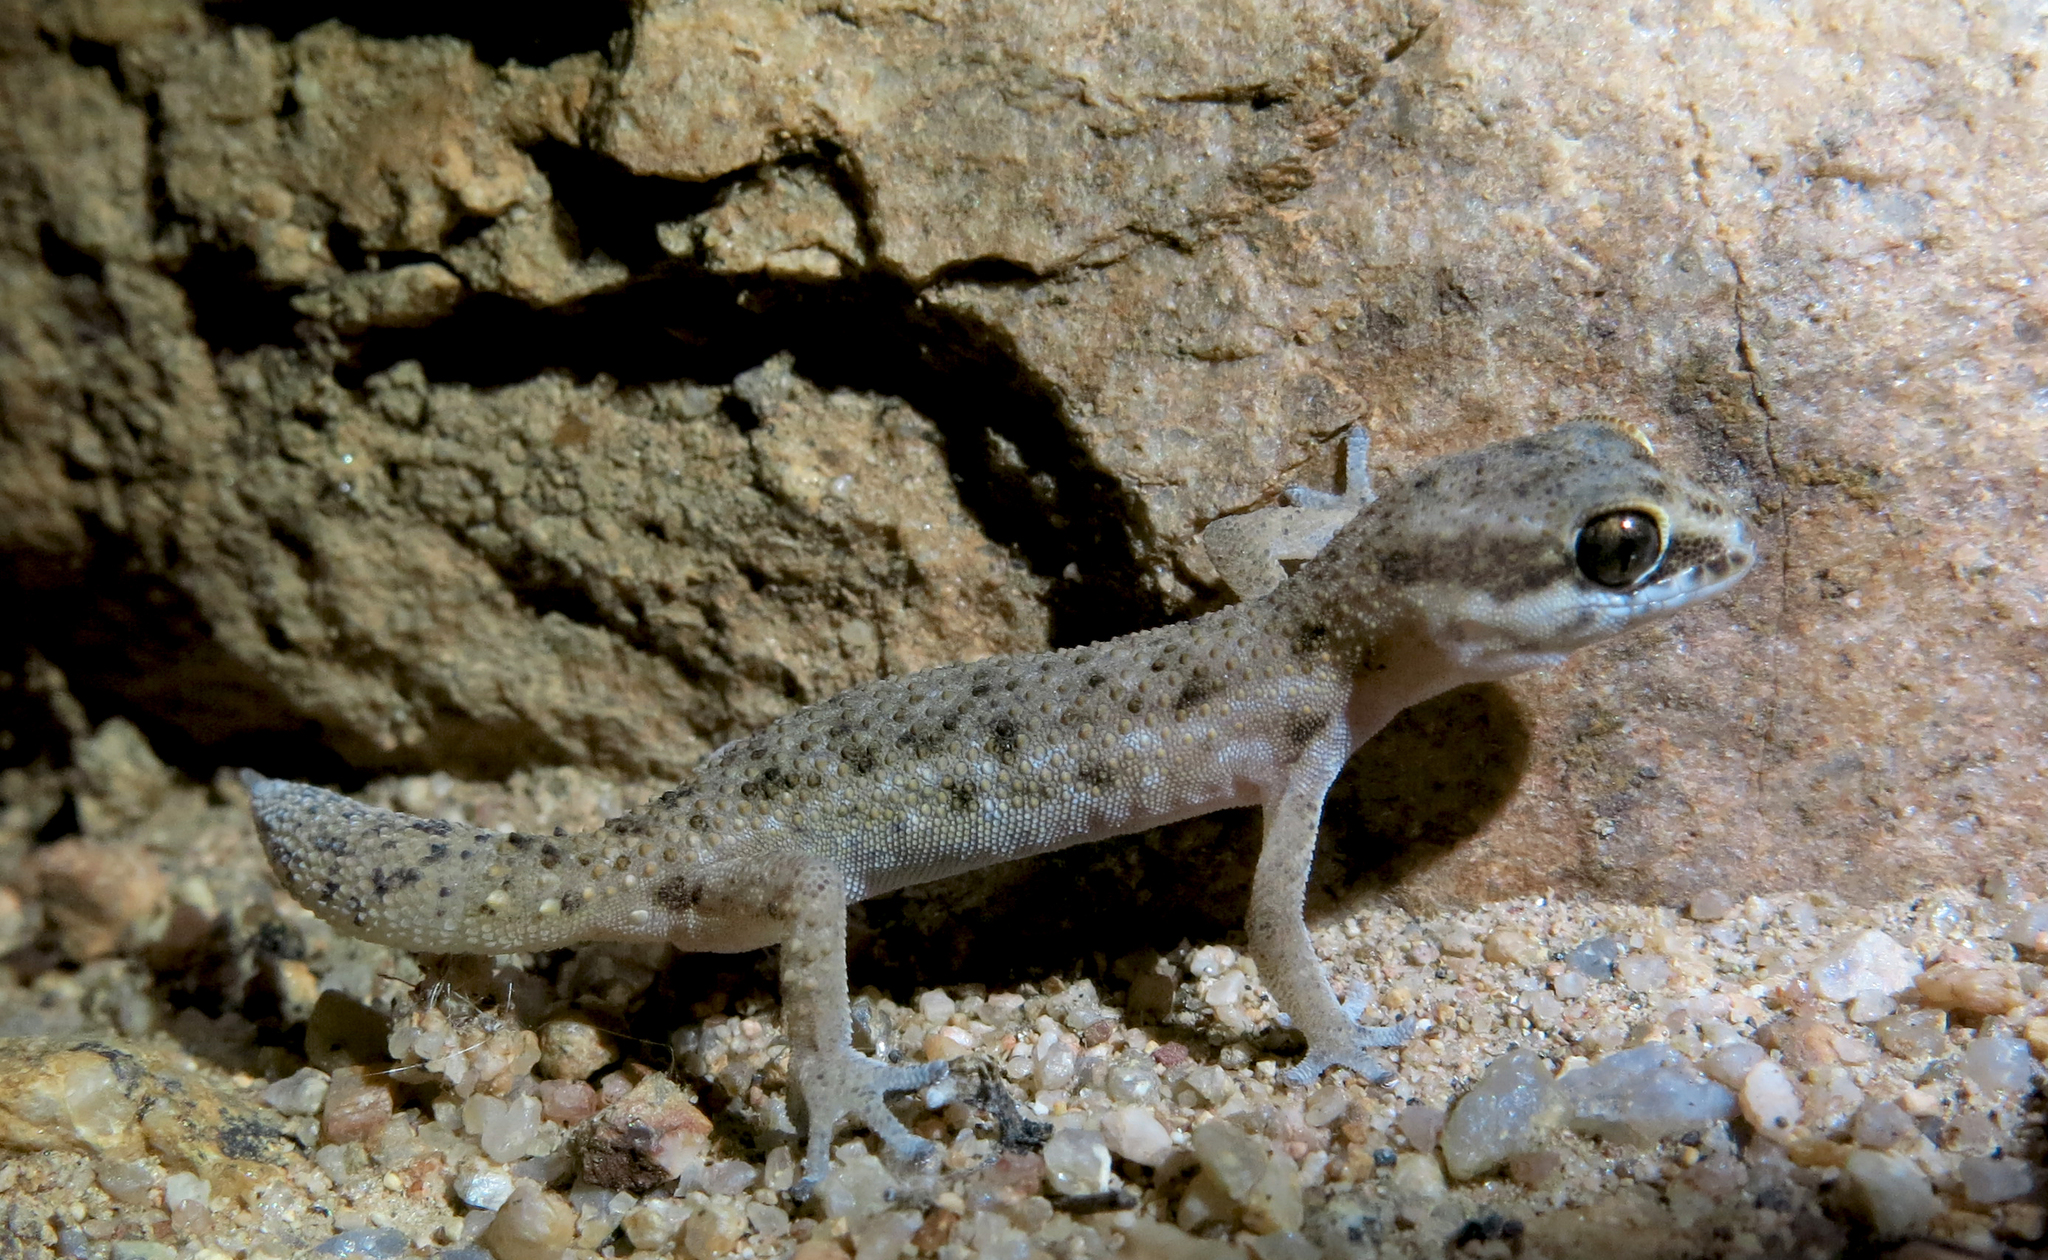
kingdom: Animalia
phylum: Chordata
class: Squamata
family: Gekkonidae
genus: Pachydactylus
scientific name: Pachydactylus labialis
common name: Calvinia thick-toed gecko
